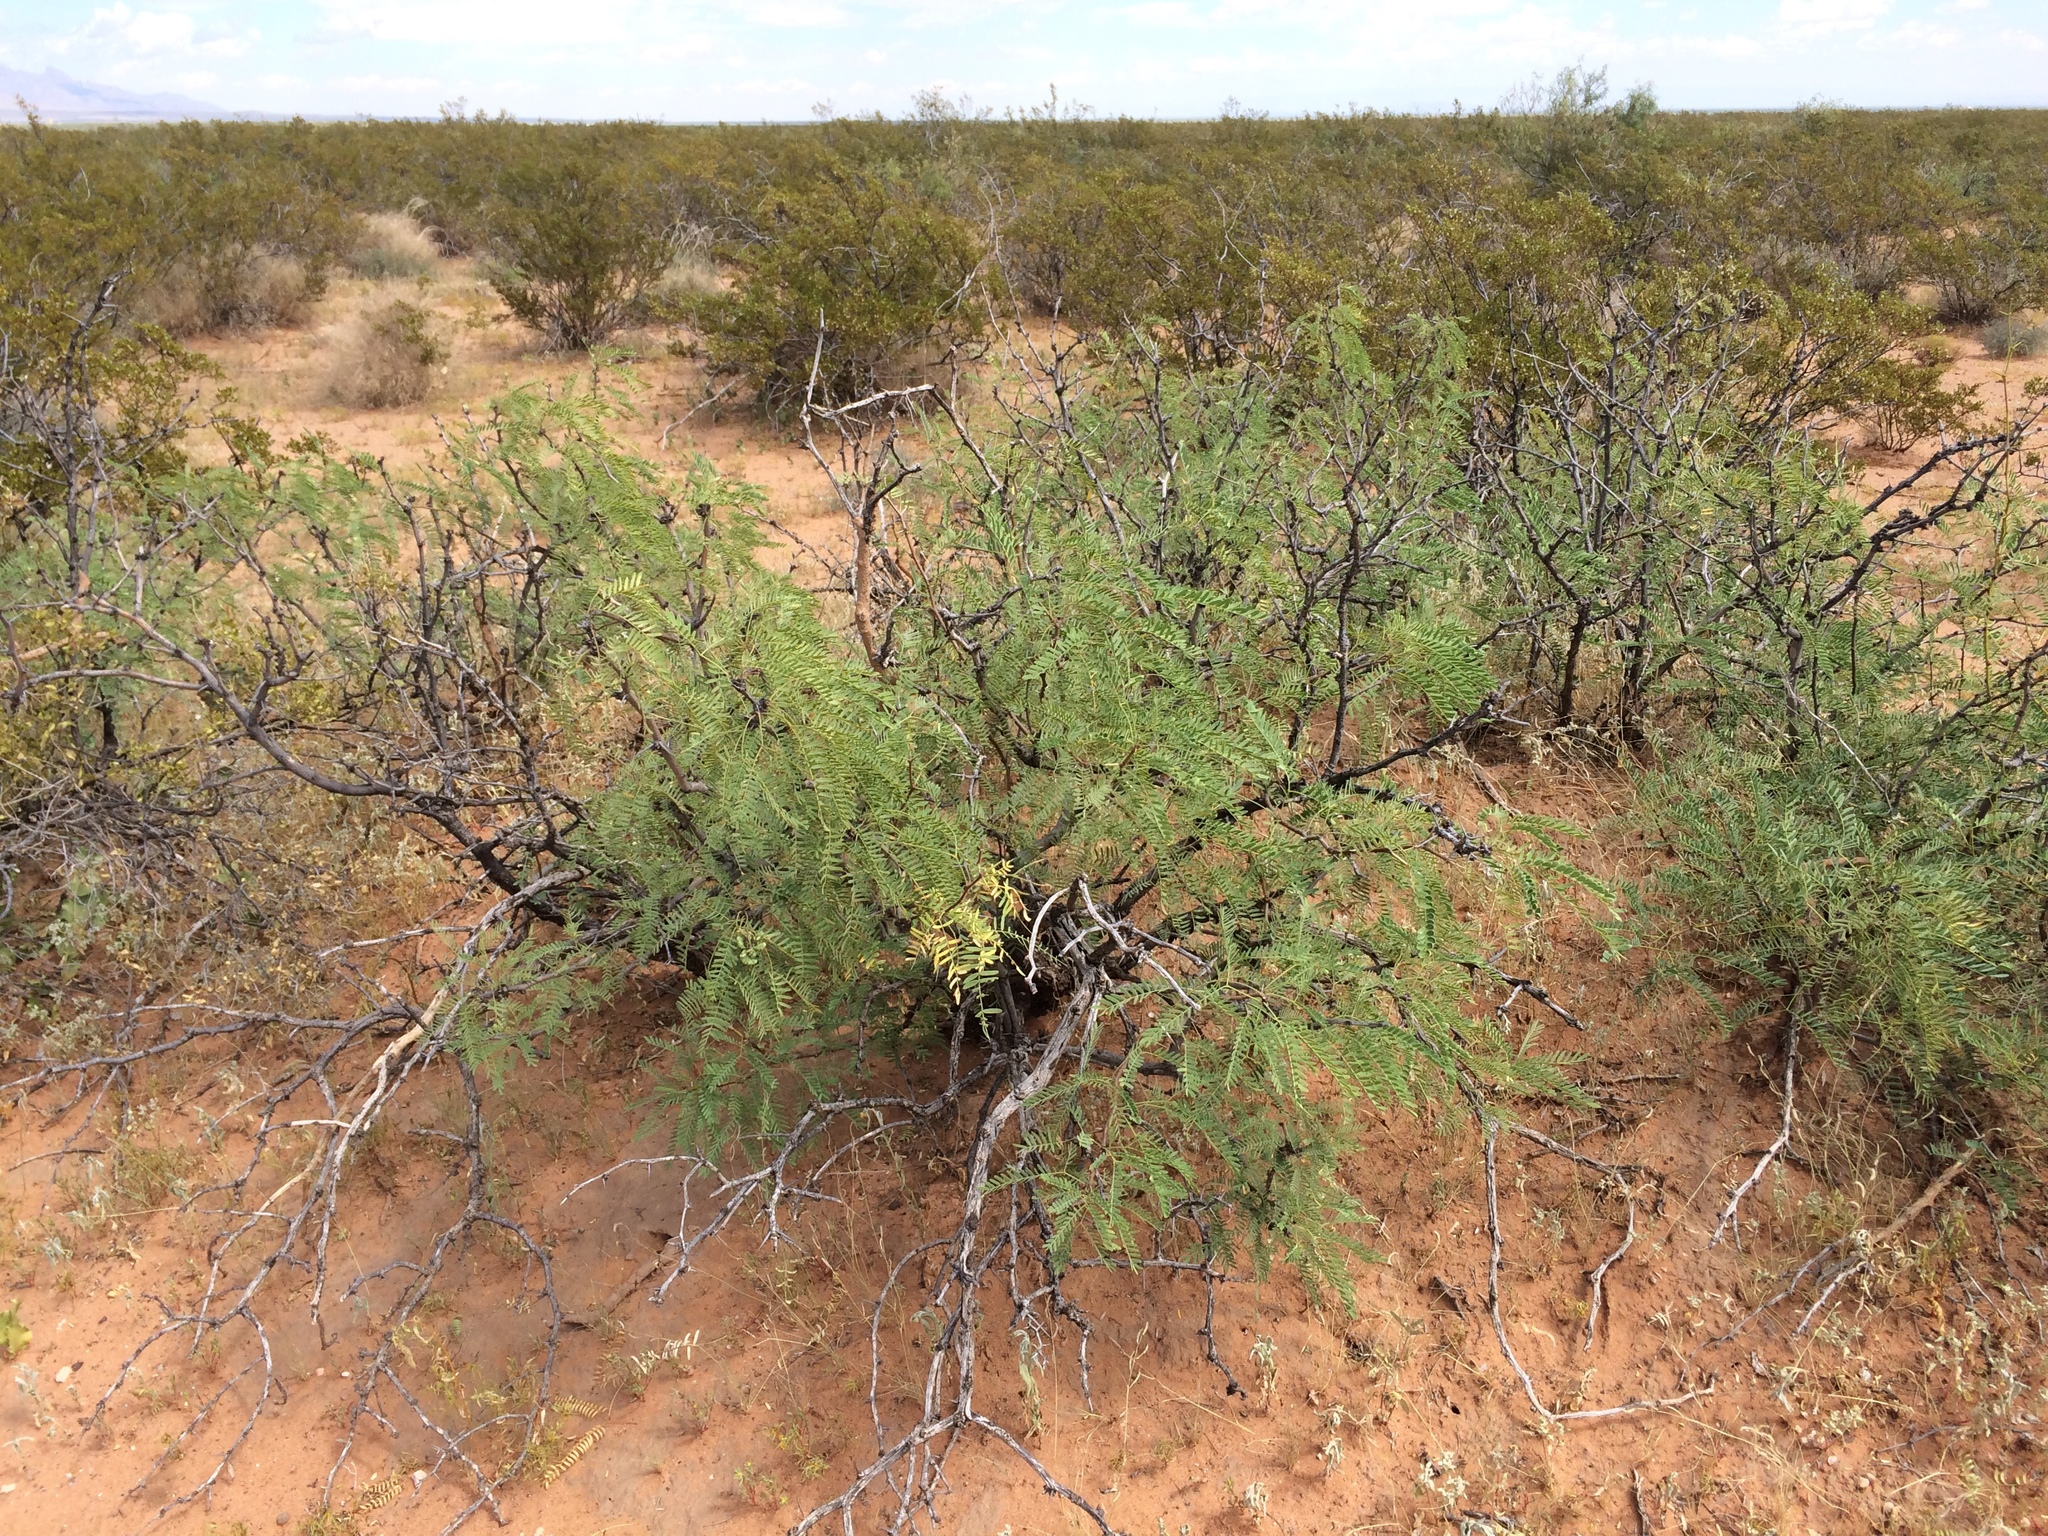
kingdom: Plantae
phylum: Tracheophyta
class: Magnoliopsida
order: Fabales
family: Fabaceae
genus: Prosopis
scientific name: Prosopis glandulosa
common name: Honey mesquite
